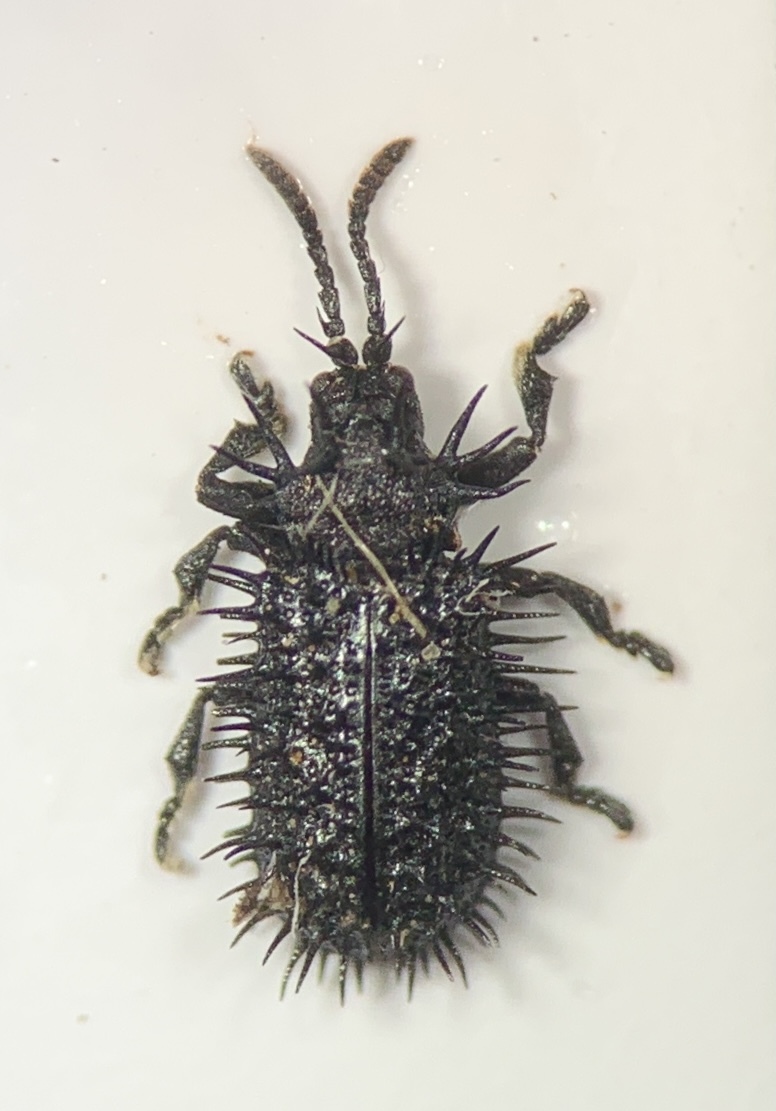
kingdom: Animalia
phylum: Arthropoda
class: Insecta
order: Coleoptera
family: Chrysomelidae
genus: Hispa
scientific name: Hispa atra
